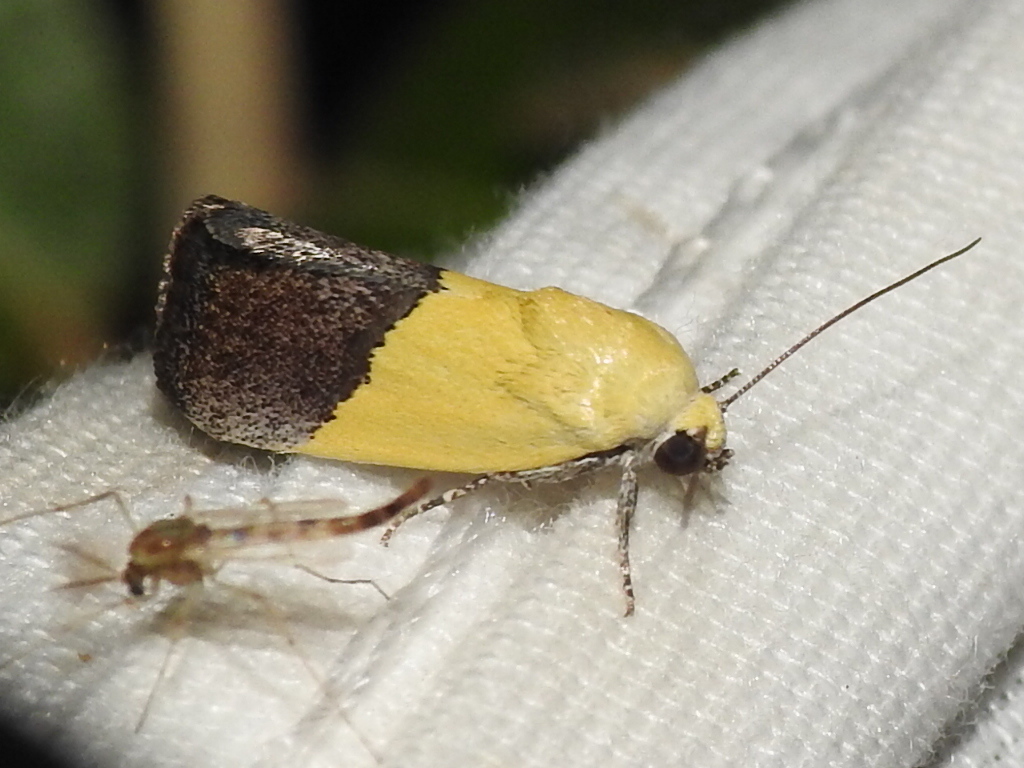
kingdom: Animalia
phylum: Arthropoda
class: Insecta
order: Lepidoptera
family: Noctuidae
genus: Acontia
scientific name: Acontia semiflava
